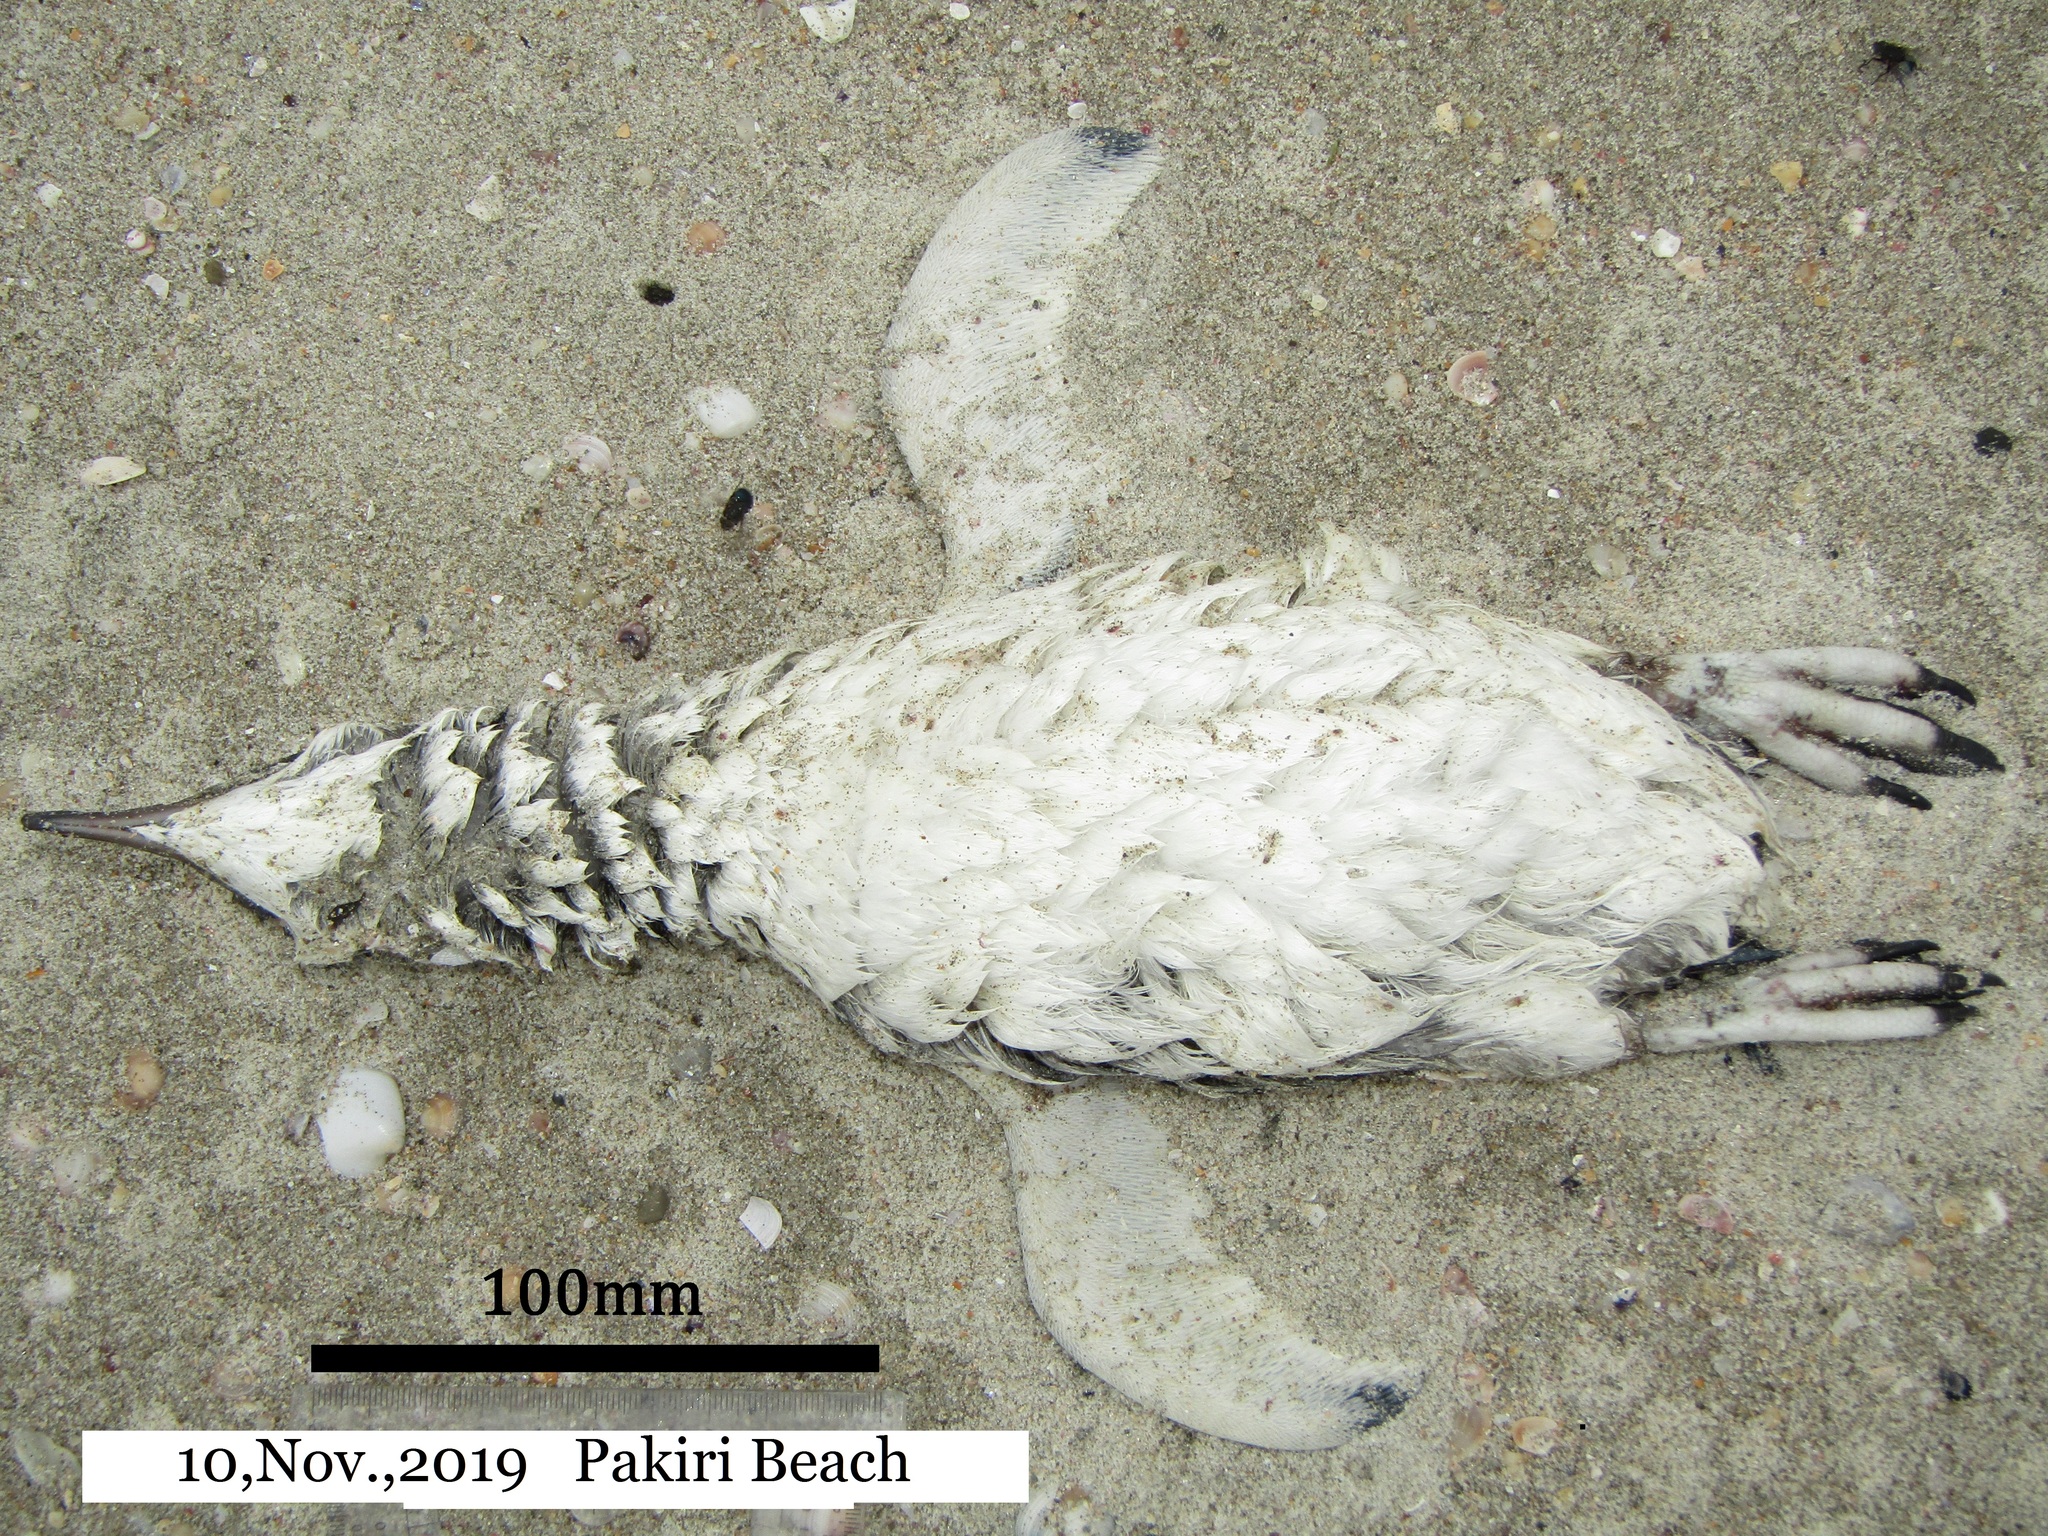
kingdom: Animalia
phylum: Chordata
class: Aves
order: Sphenisciformes
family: Spheniscidae
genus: Eudyptula
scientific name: Eudyptula minor
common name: Little penguin
